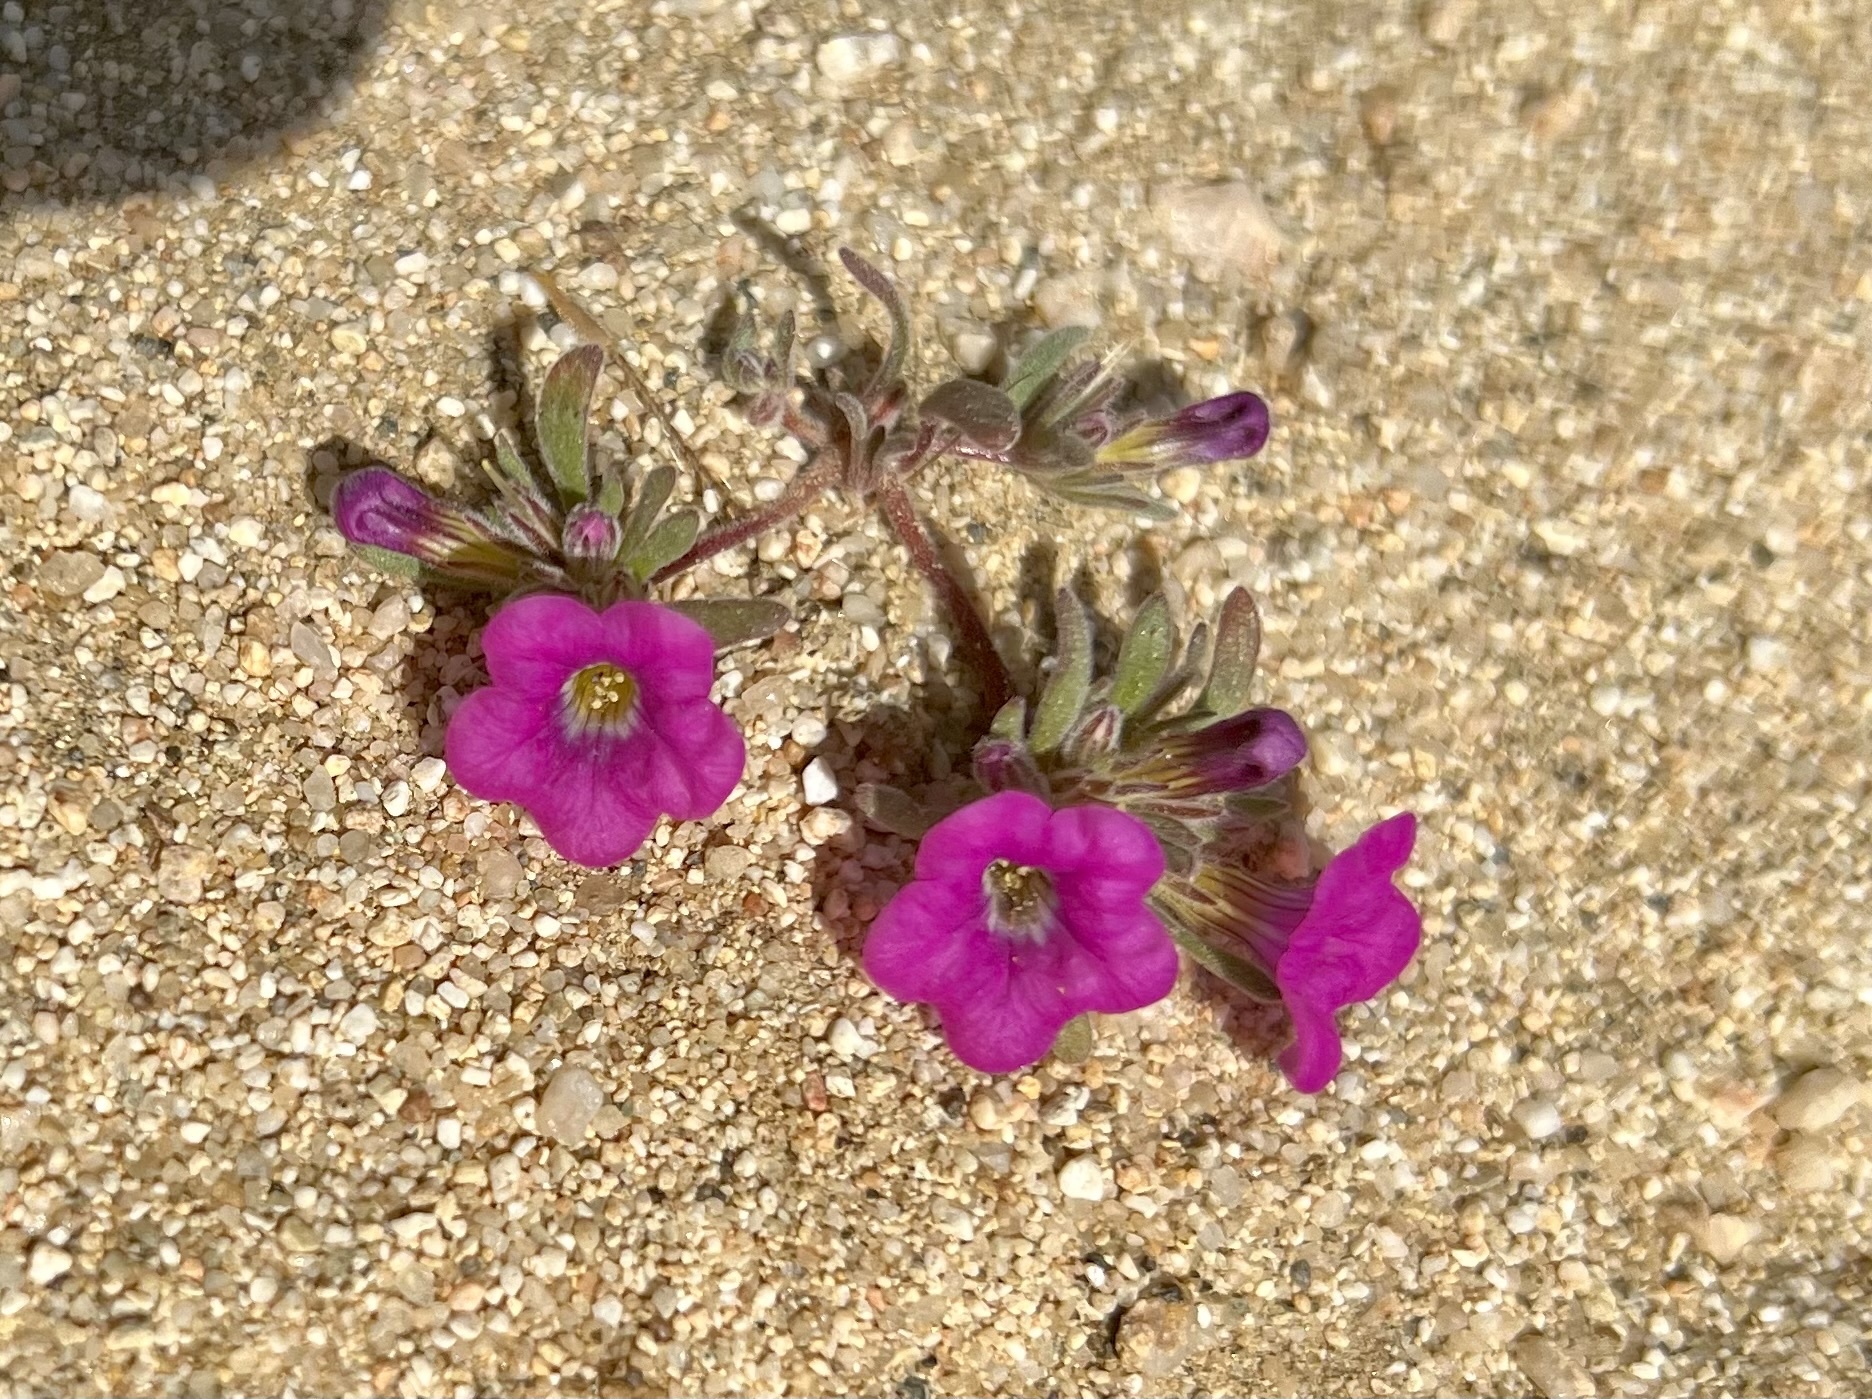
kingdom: Plantae
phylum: Tracheophyta
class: Magnoliopsida
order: Boraginales
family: Namaceae
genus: Nama
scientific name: Nama demissa
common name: Leafy nama
